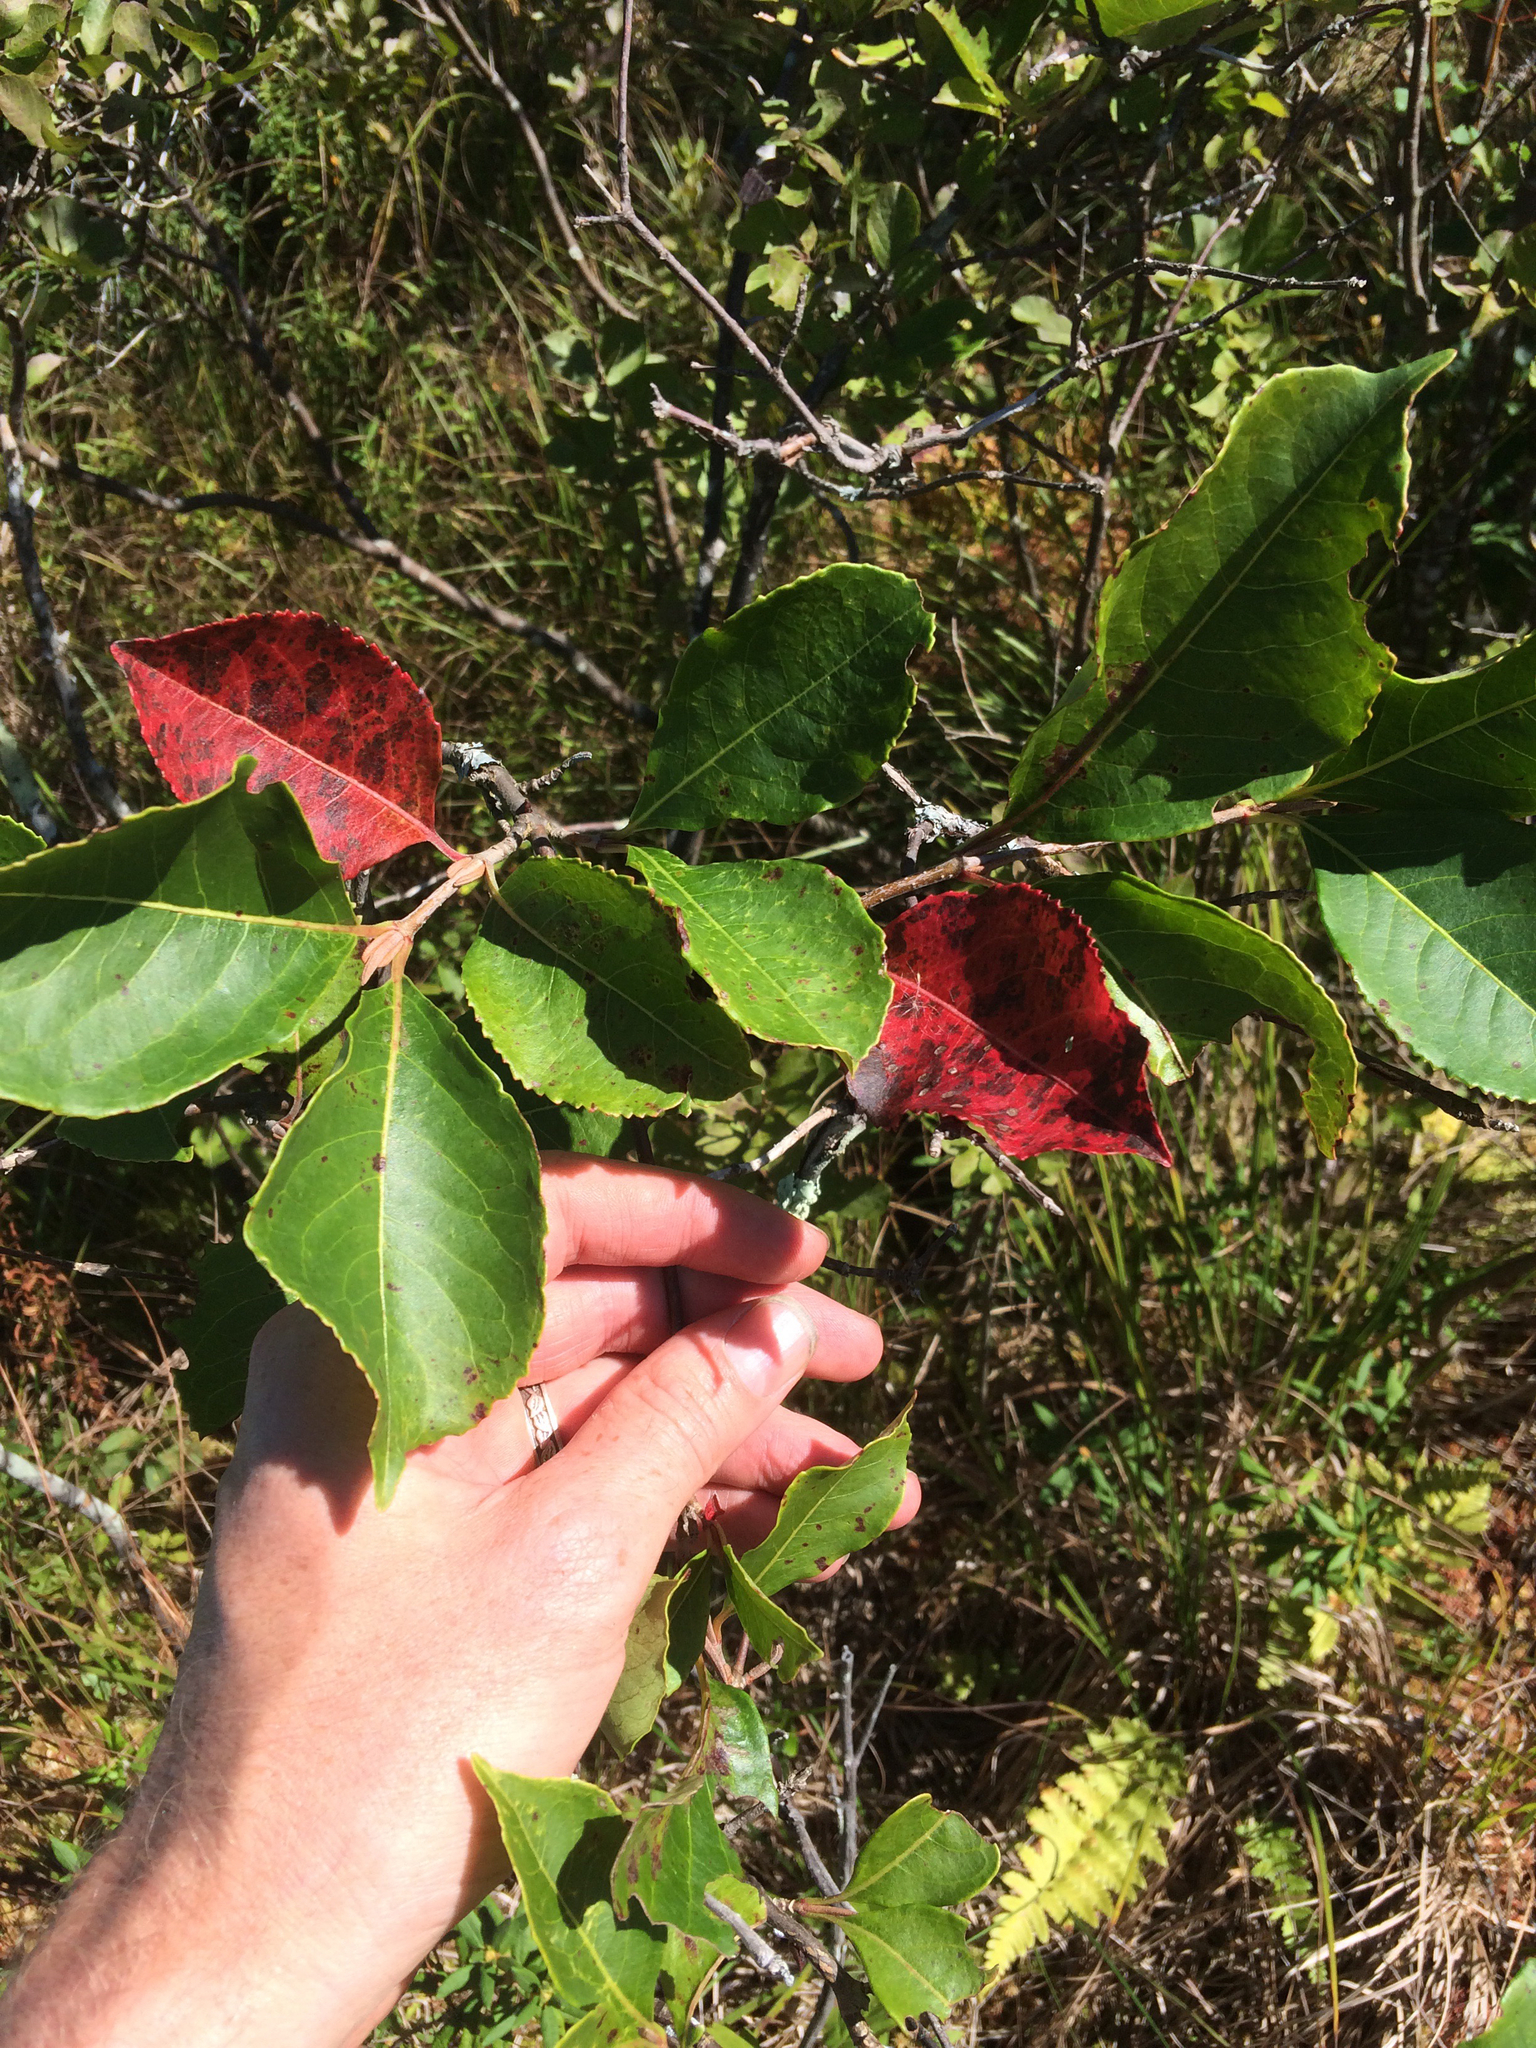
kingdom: Plantae
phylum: Tracheophyta
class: Magnoliopsida
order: Dipsacales
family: Viburnaceae
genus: Viburnum
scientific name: Viburnum cassinoides
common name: Swamp haw
